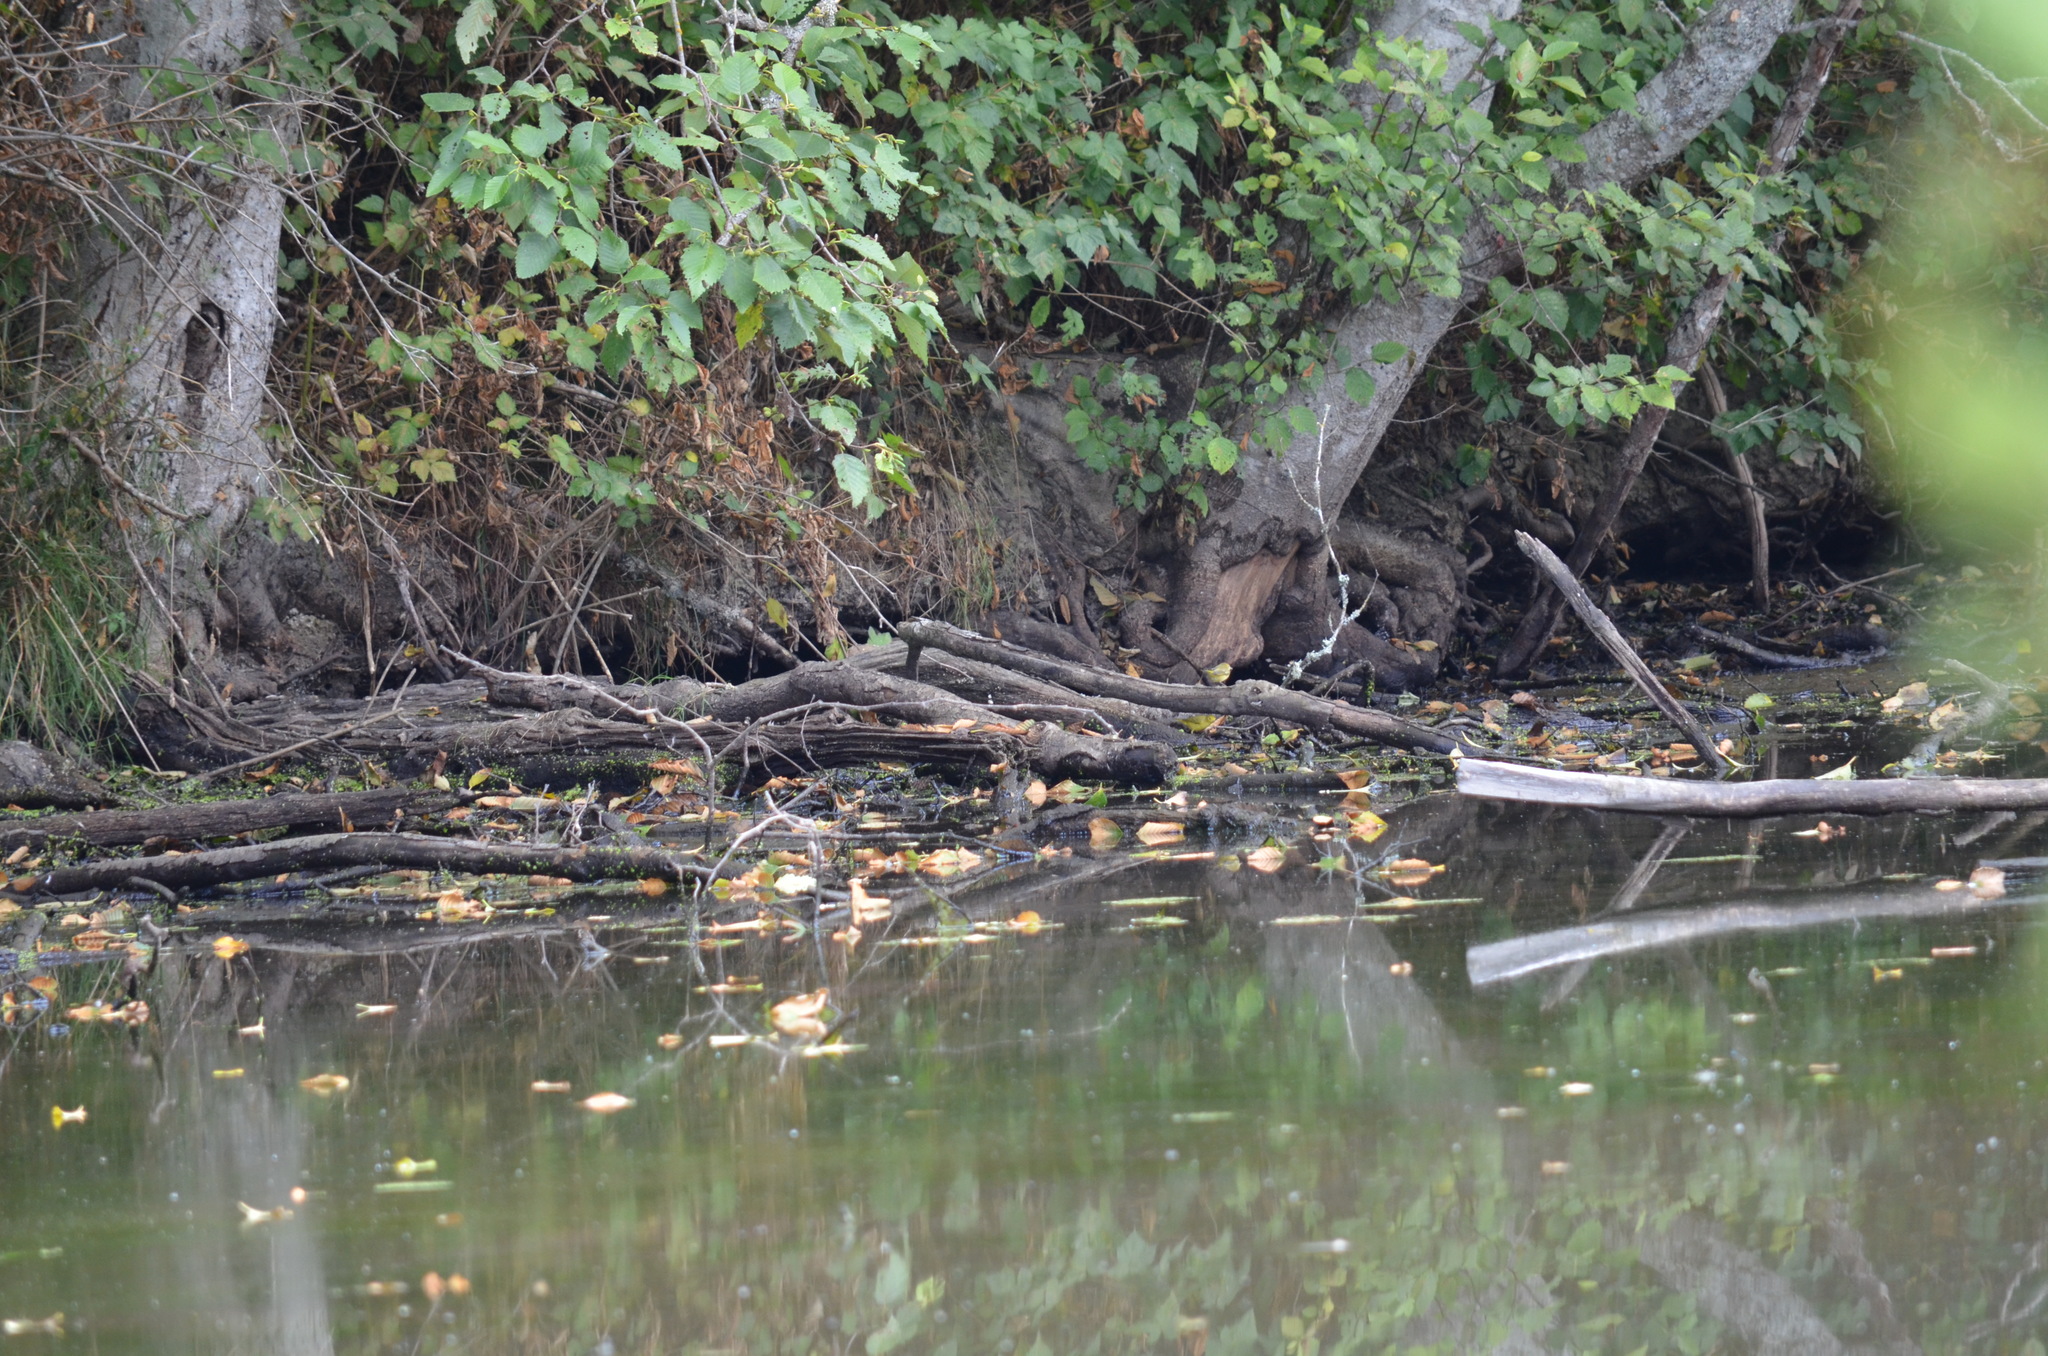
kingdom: Animalia
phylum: Chordata
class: Aves
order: Passeriformes
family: Parulidae
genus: Setophaga
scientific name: Setophaga petechia
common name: Yellow warbler
